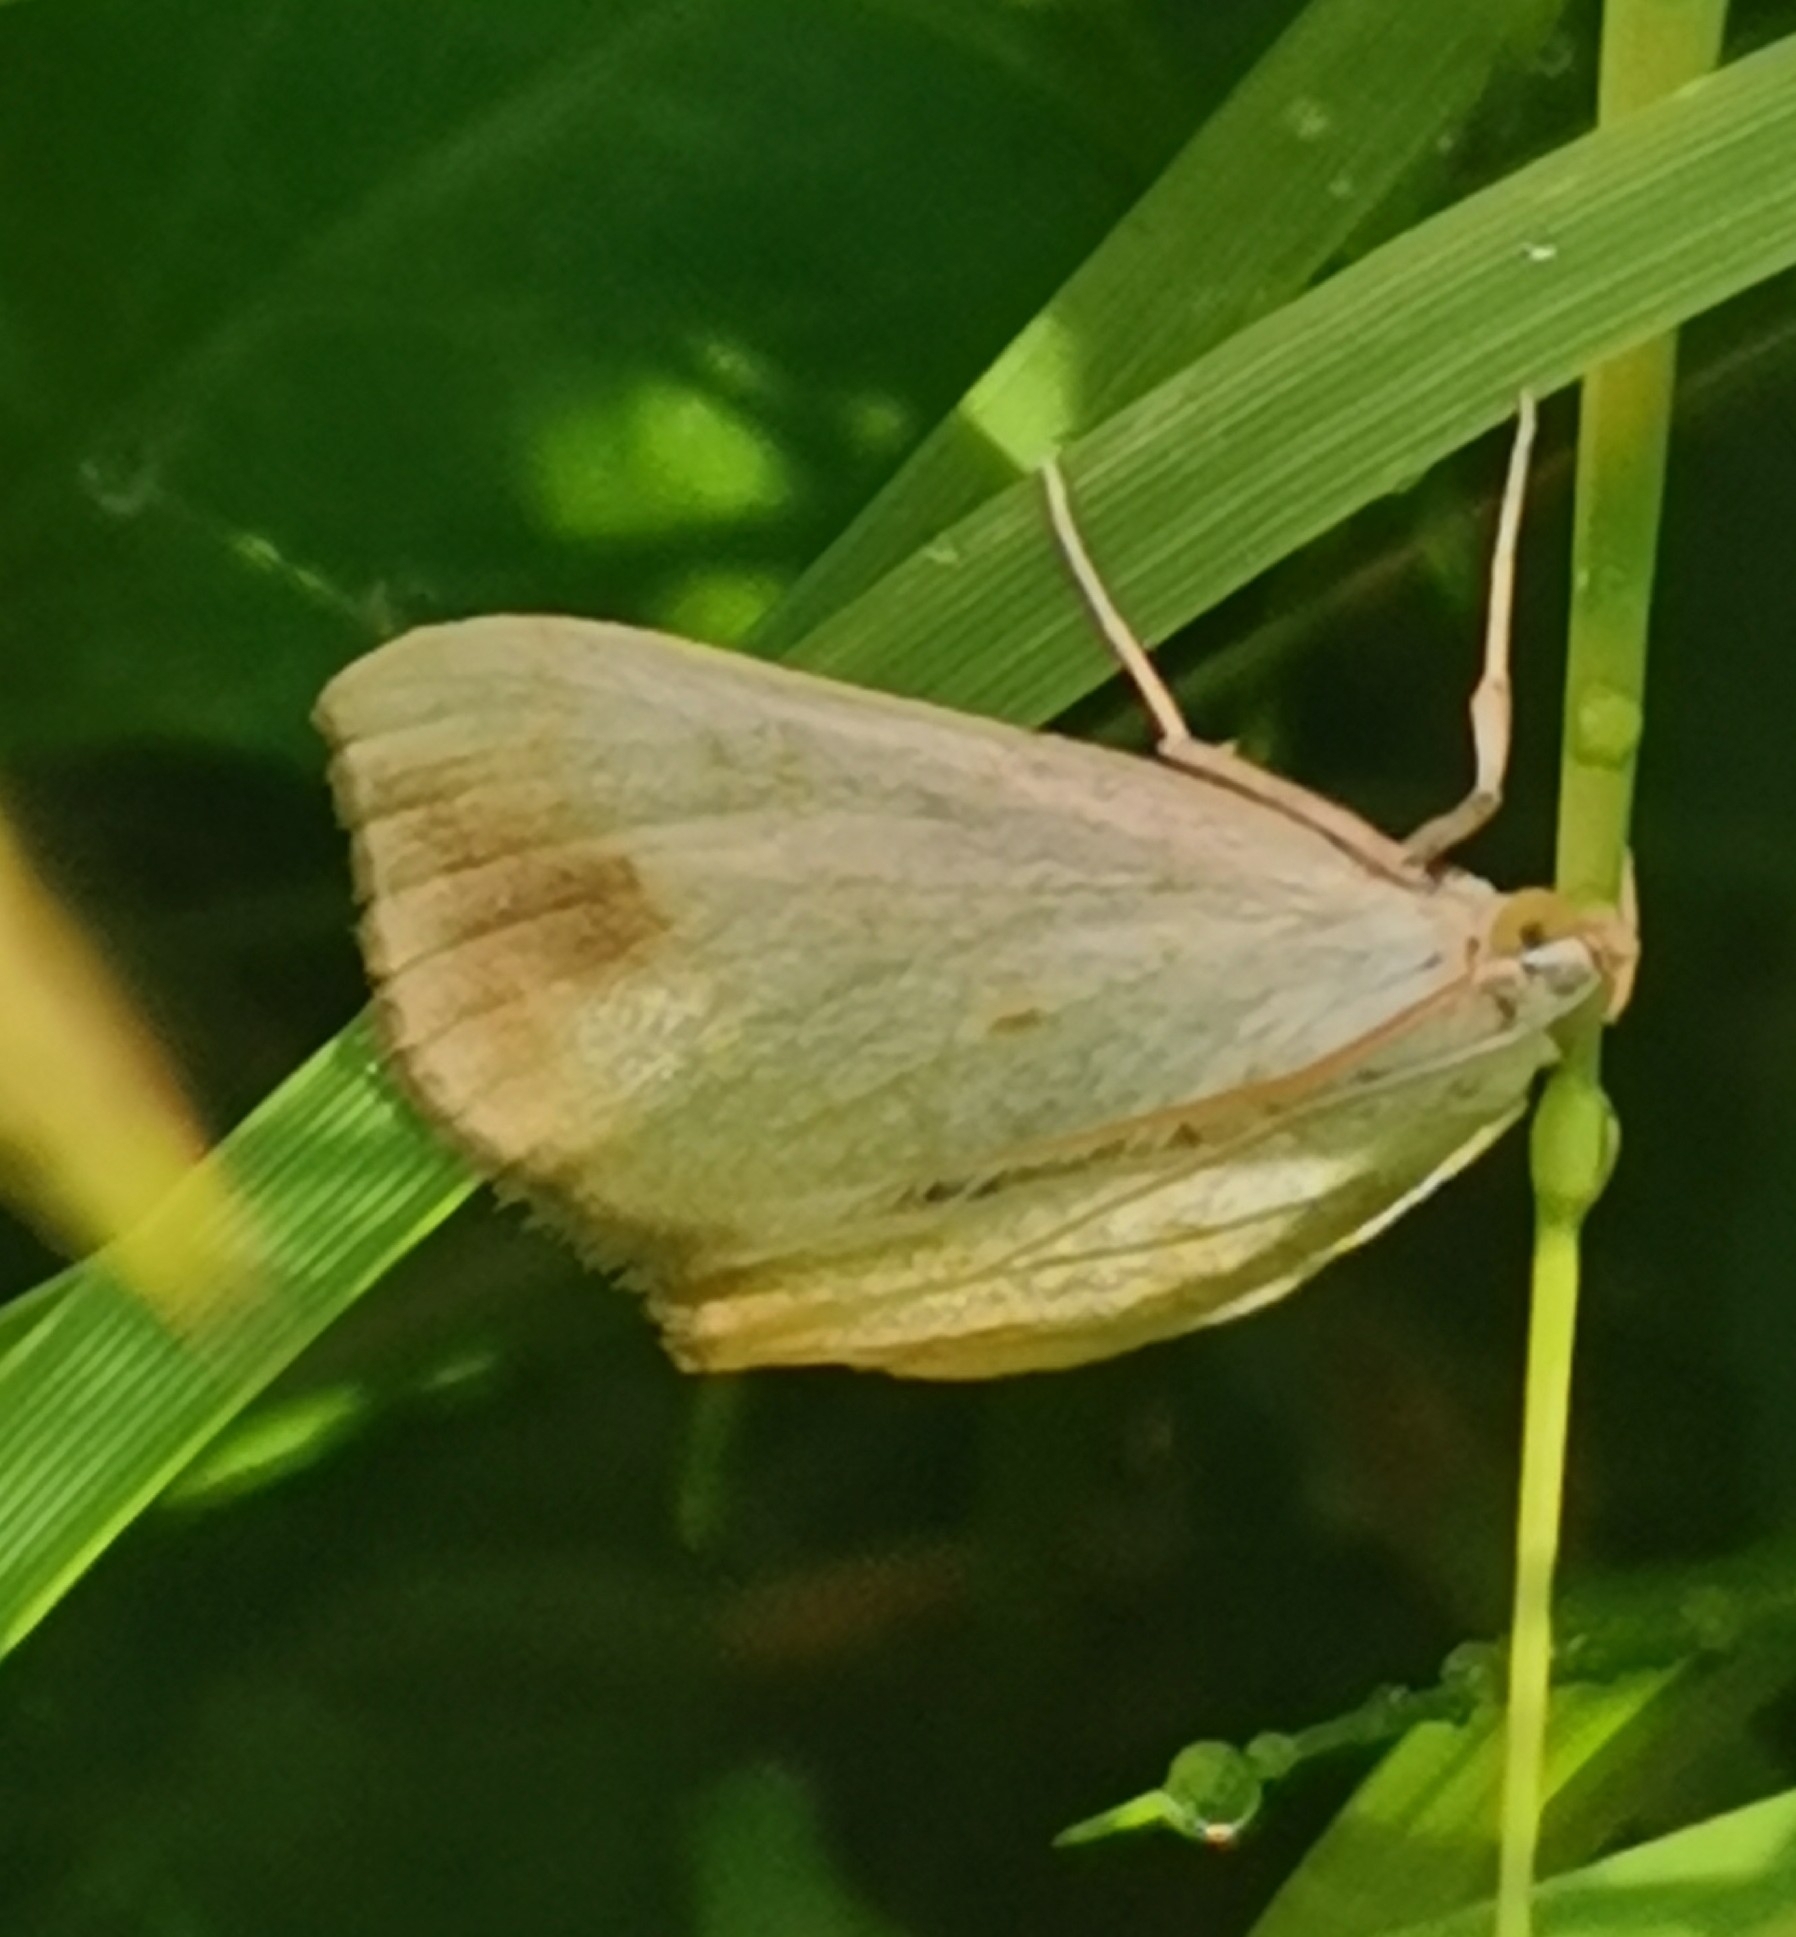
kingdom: Animalia
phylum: Arthropoda
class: Insecta
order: Lepidoptera
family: Crambidae
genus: Evergestis
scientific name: Evergestis extimalis
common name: Marbled yellow pearl
